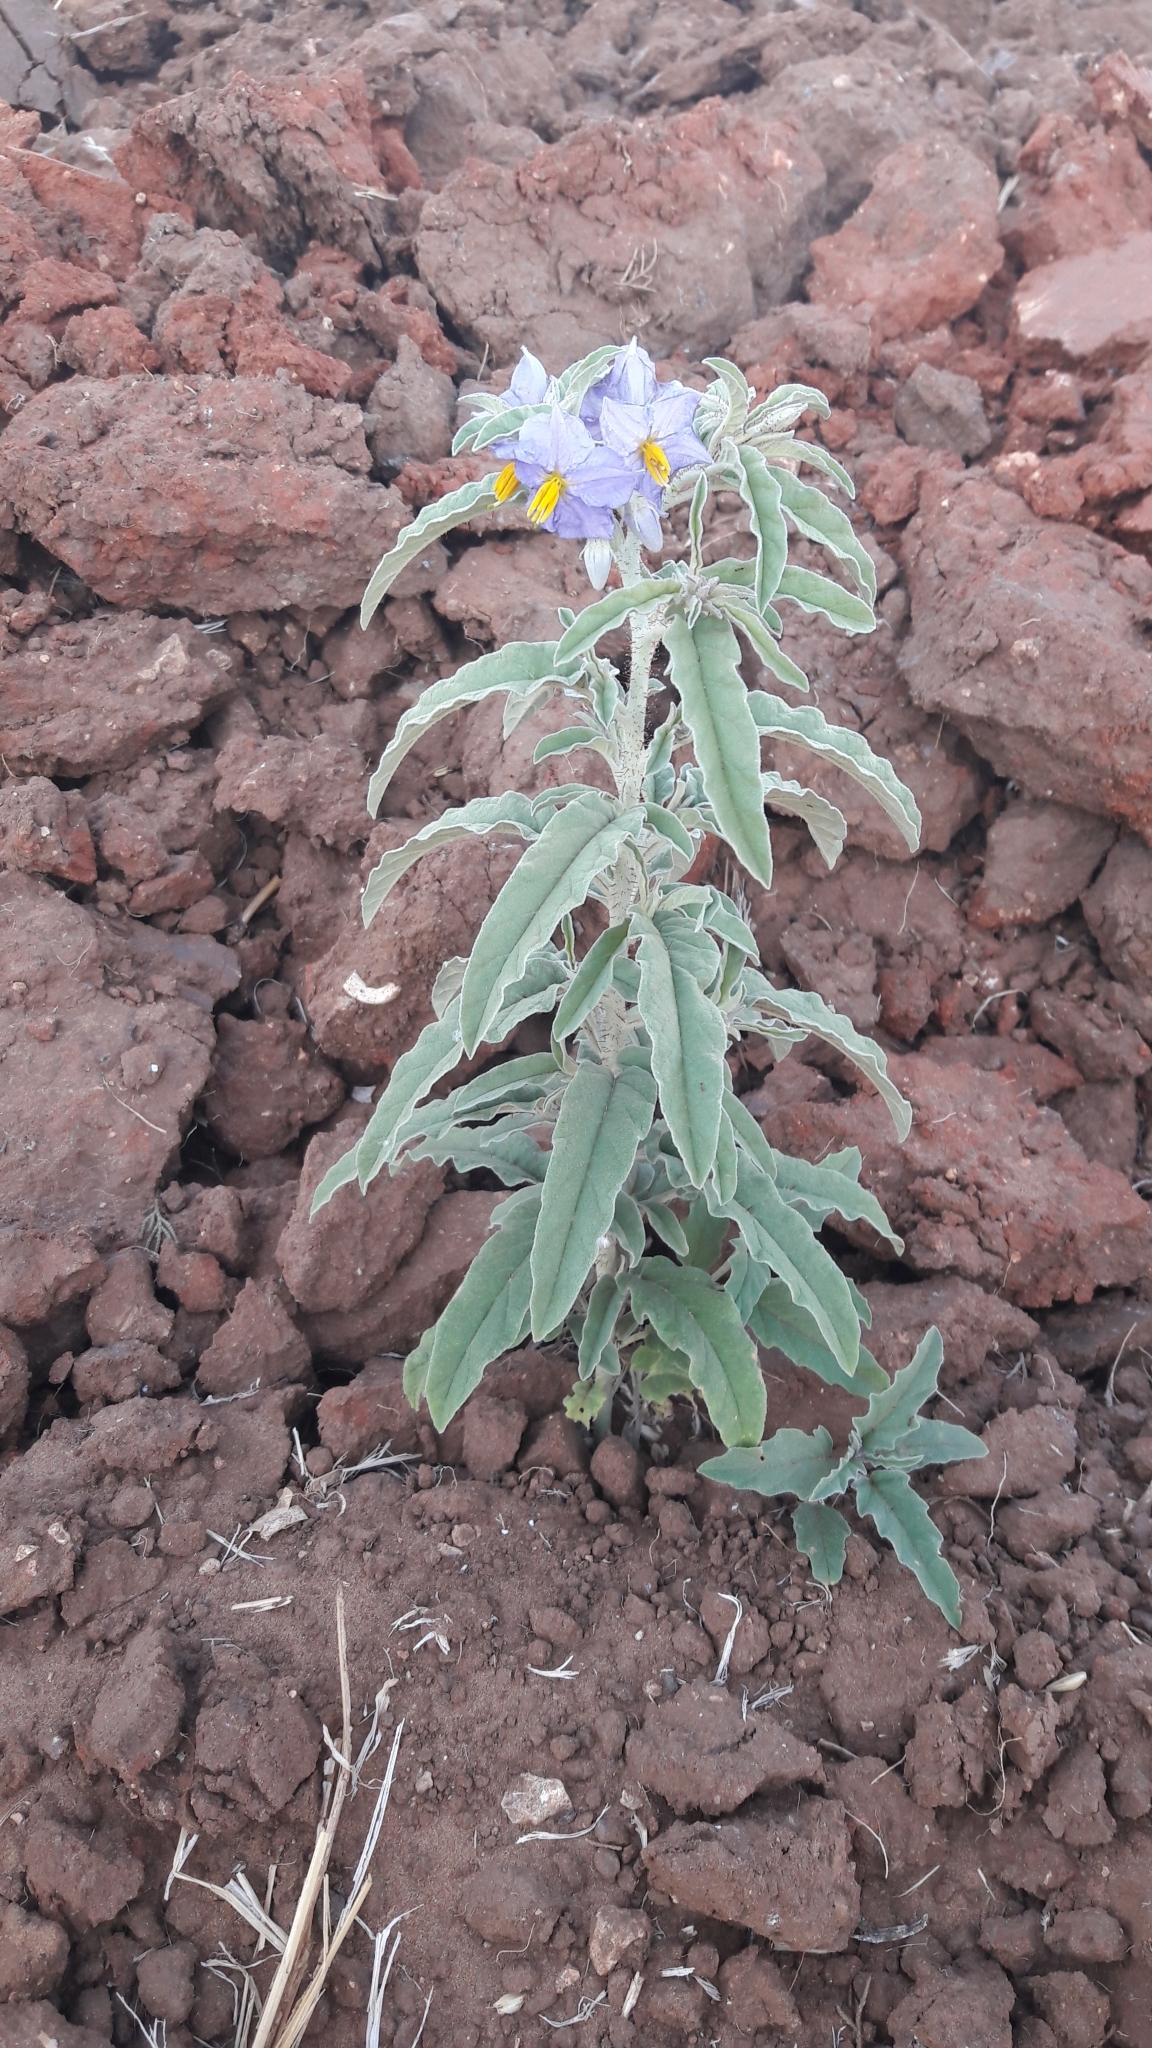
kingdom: Plantae
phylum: Tracheophyta
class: Magnoliopsida
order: Solanales
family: Solanaceae
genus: Solanum
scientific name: Solanum elaeagnifolium
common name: Silverleaf nightshade
